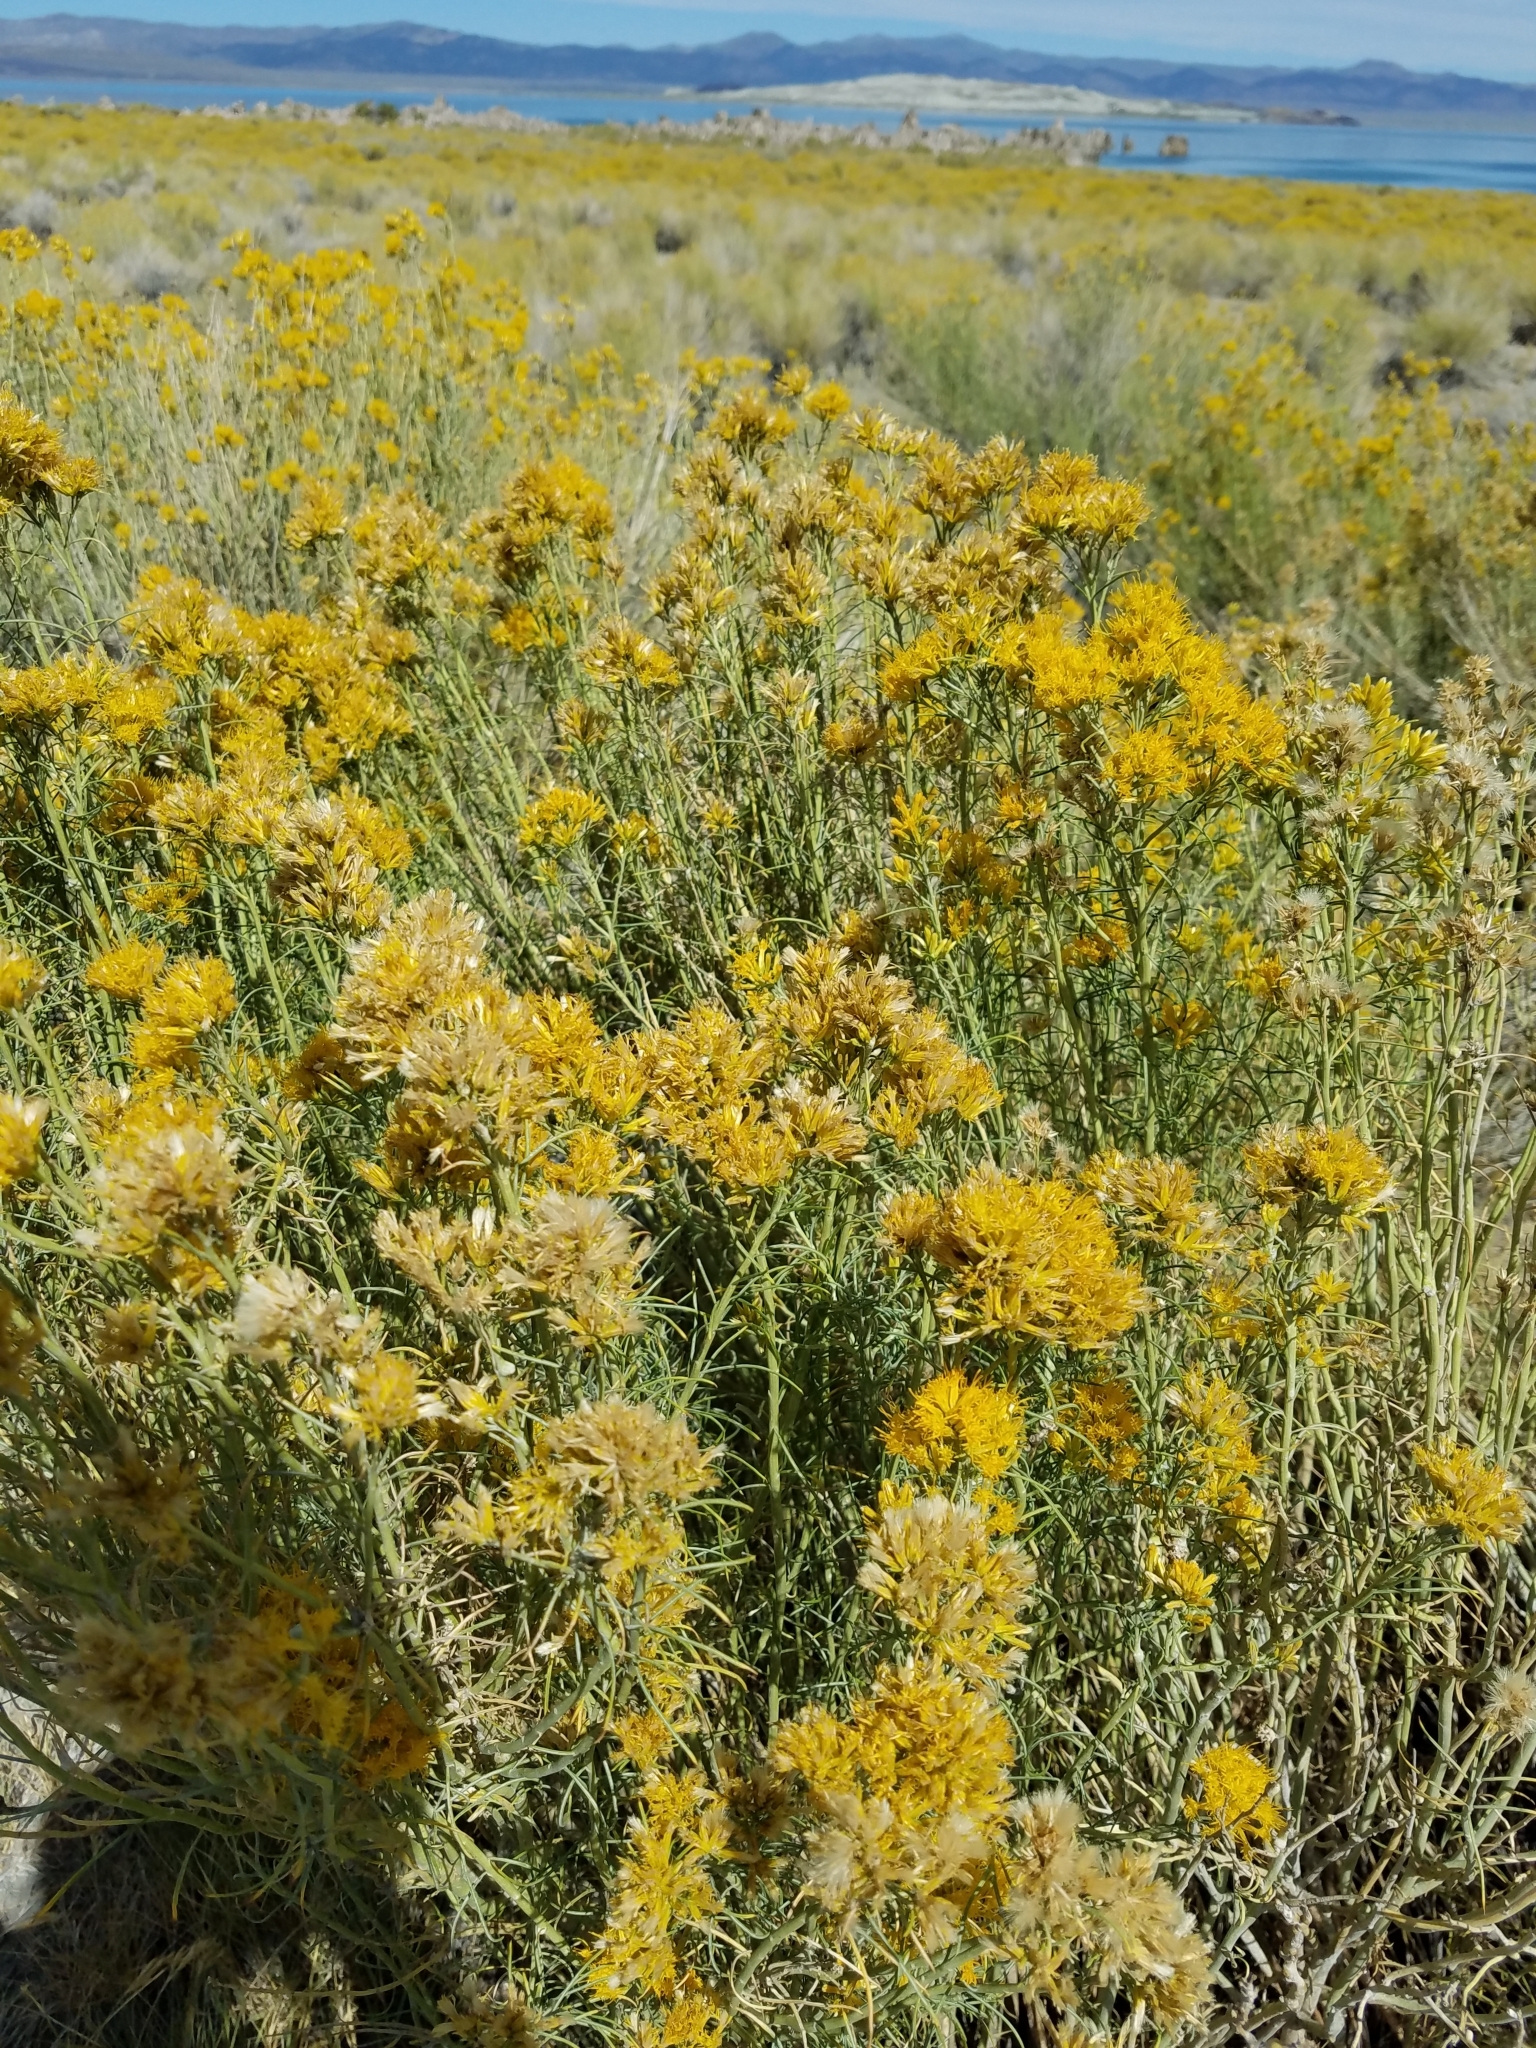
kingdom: Plantae
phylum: Tracheophyta
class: Magnoliopsida
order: Asterales
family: Asteraceae
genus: Ericameria
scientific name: Ericameria nauseosa
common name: Rubber rabbitbrush
